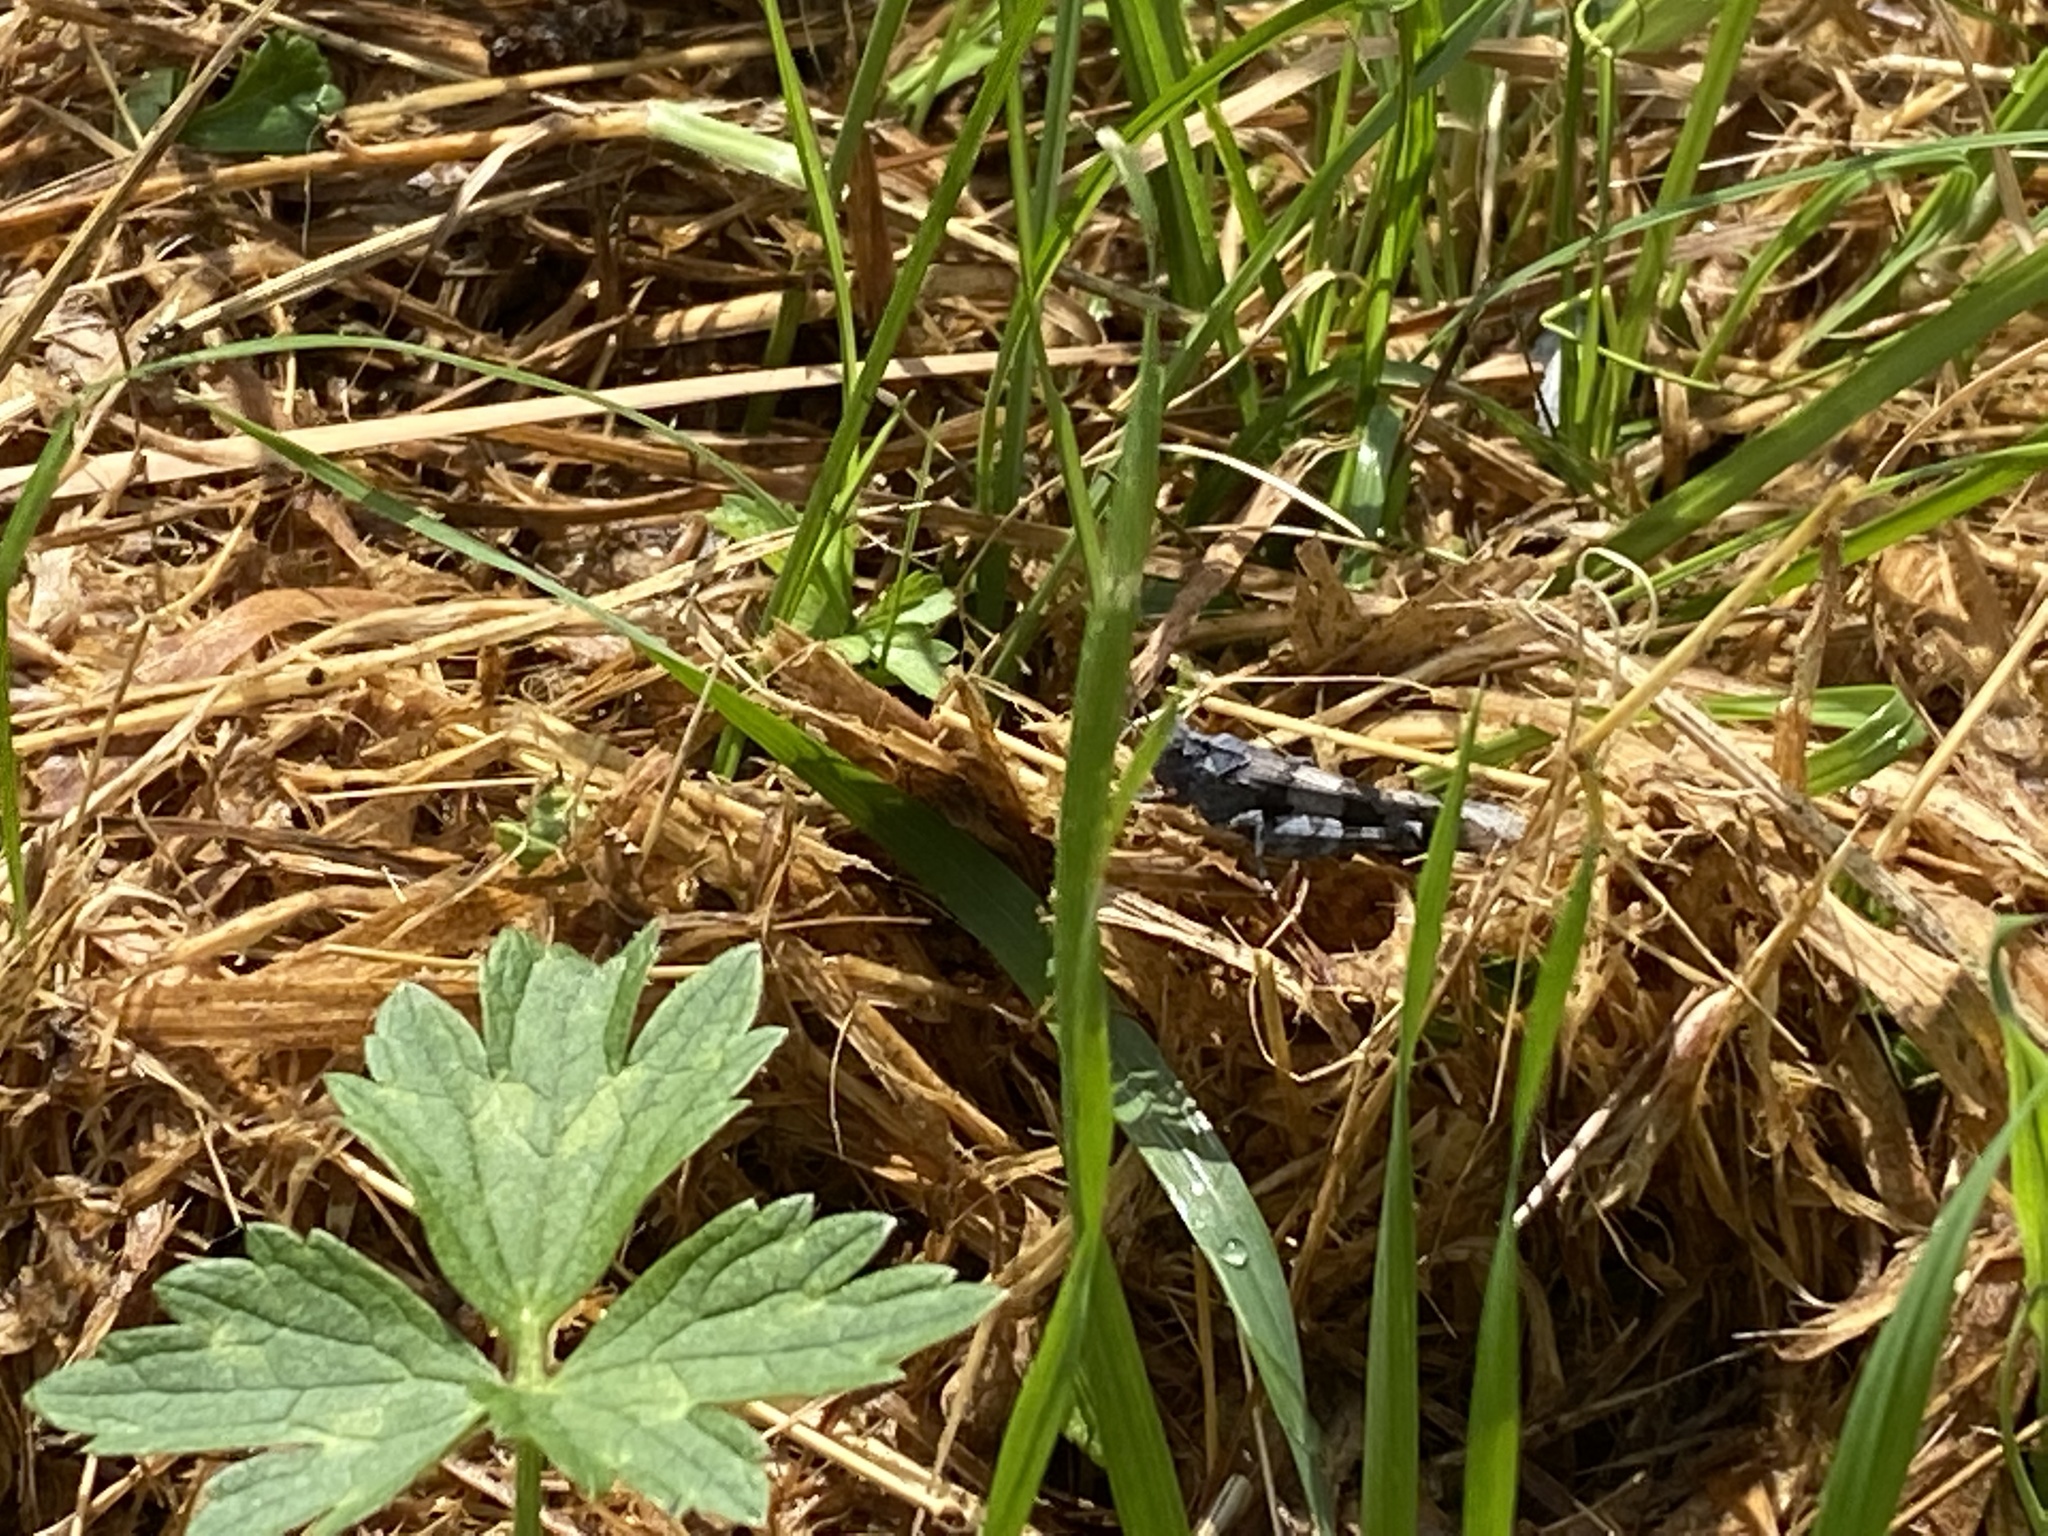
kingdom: Animalia
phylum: Arthropoda
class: Insecta
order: Orthoptera
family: Acrididae
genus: Oedipoda
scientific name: Oedipoda caerulescens
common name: Blue-winged grasshopper
